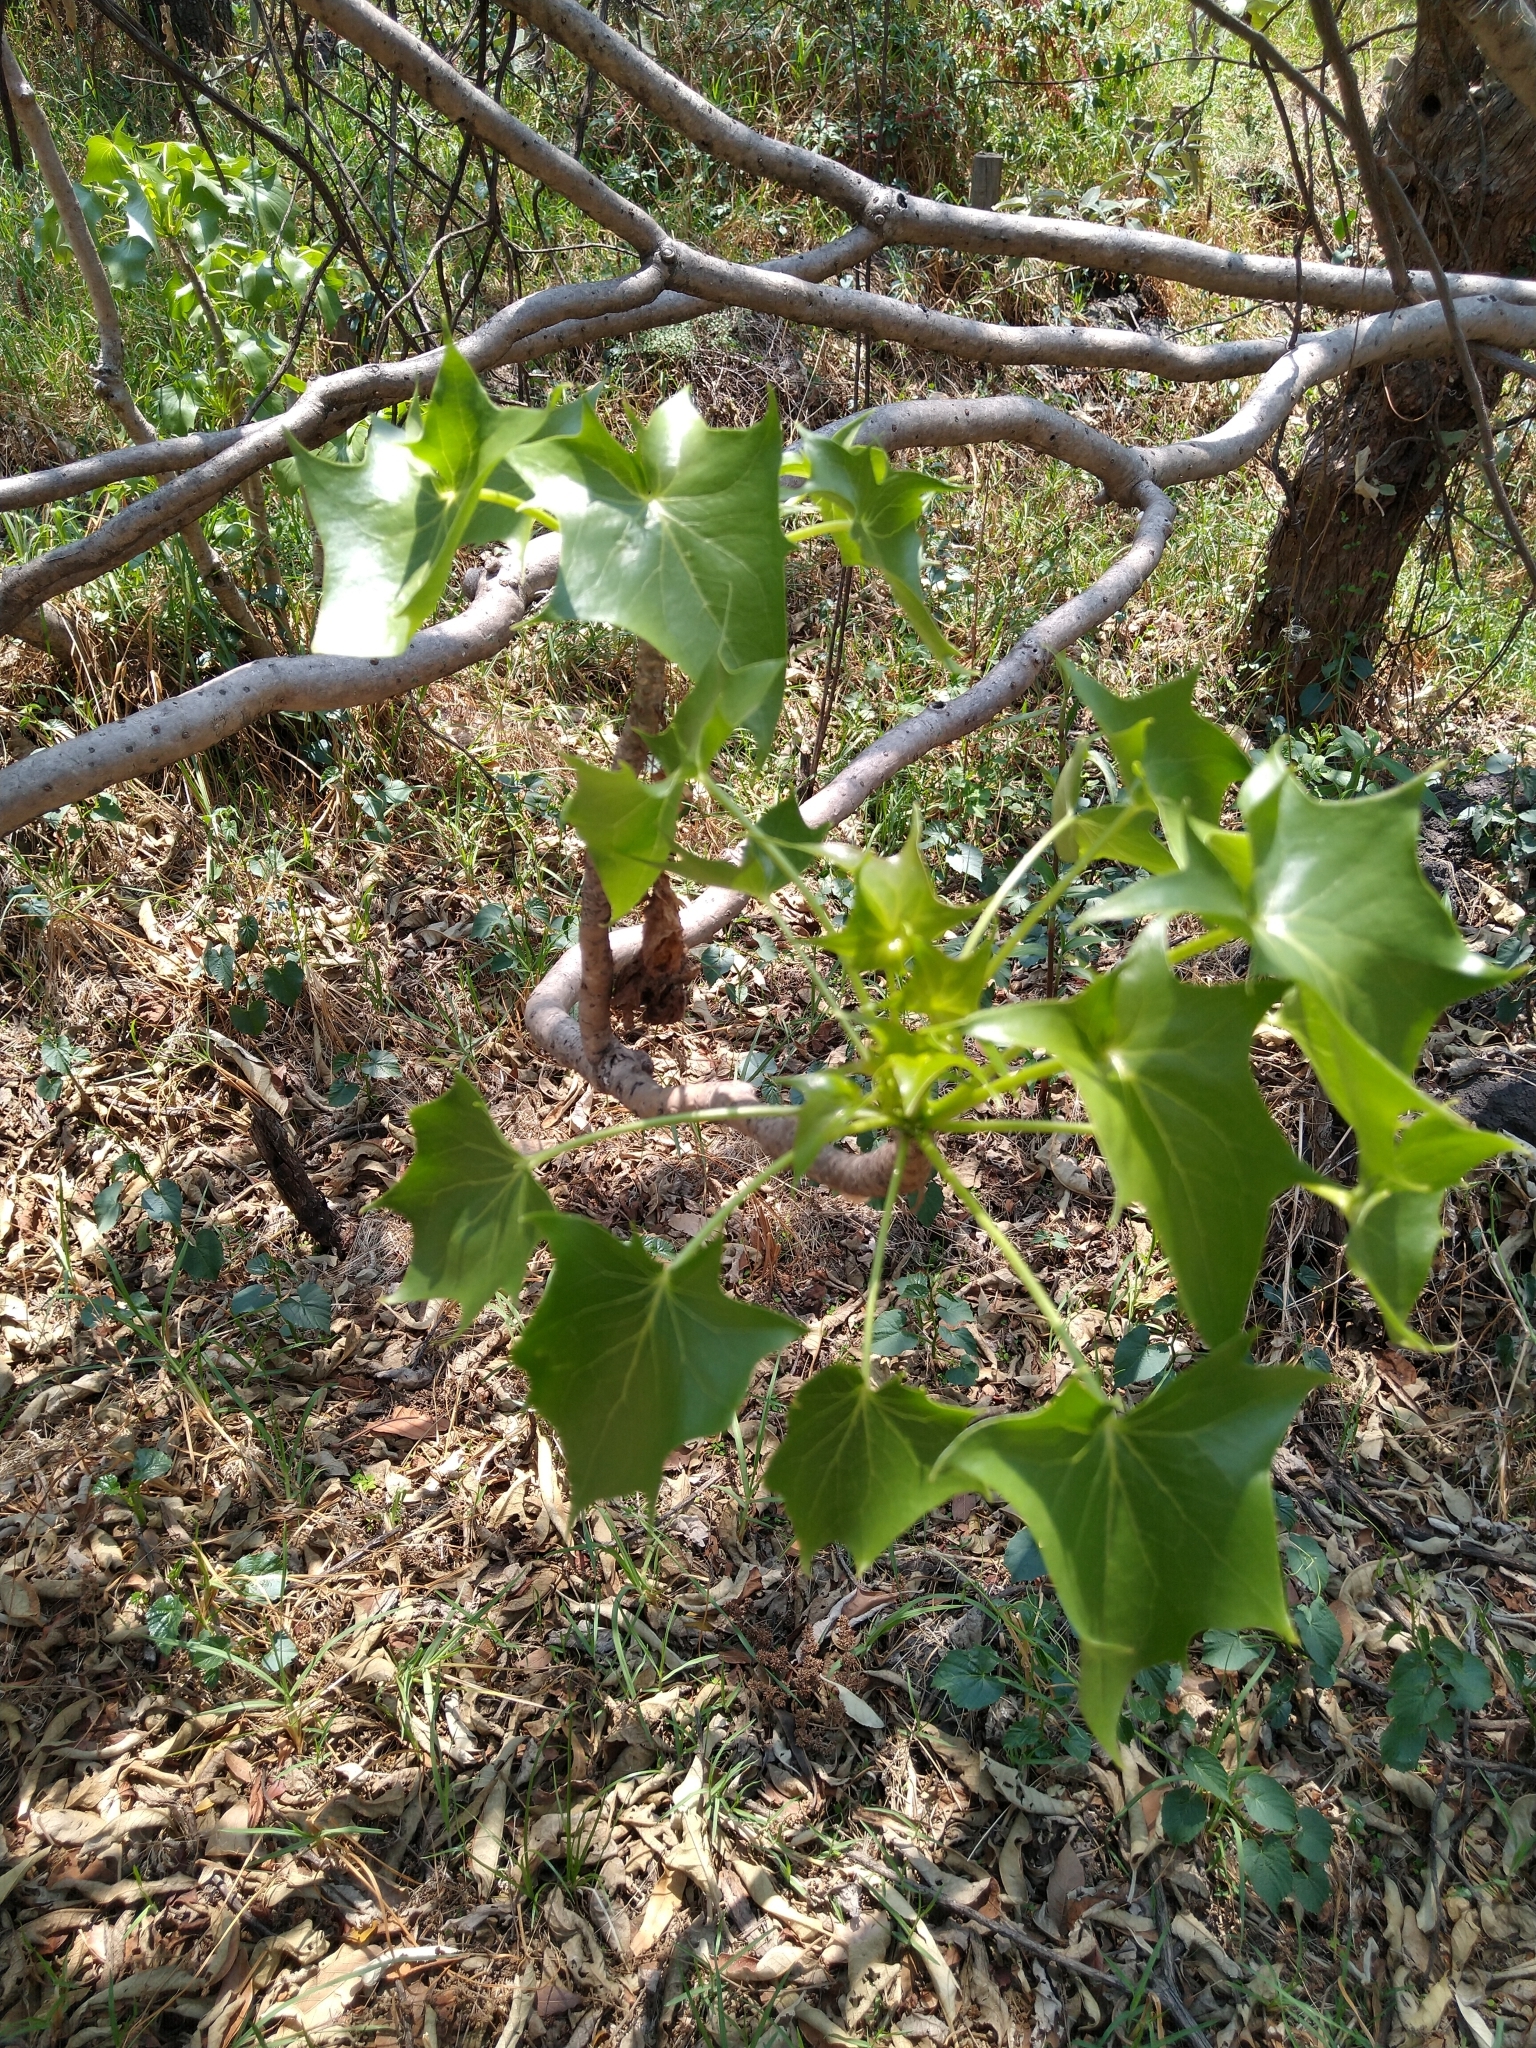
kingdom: Plantae
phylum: Tracheophyta
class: Magnoliopsida
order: Asterales
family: Asteraceae
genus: Pittocaulon
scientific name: Pittocaulon praecox
